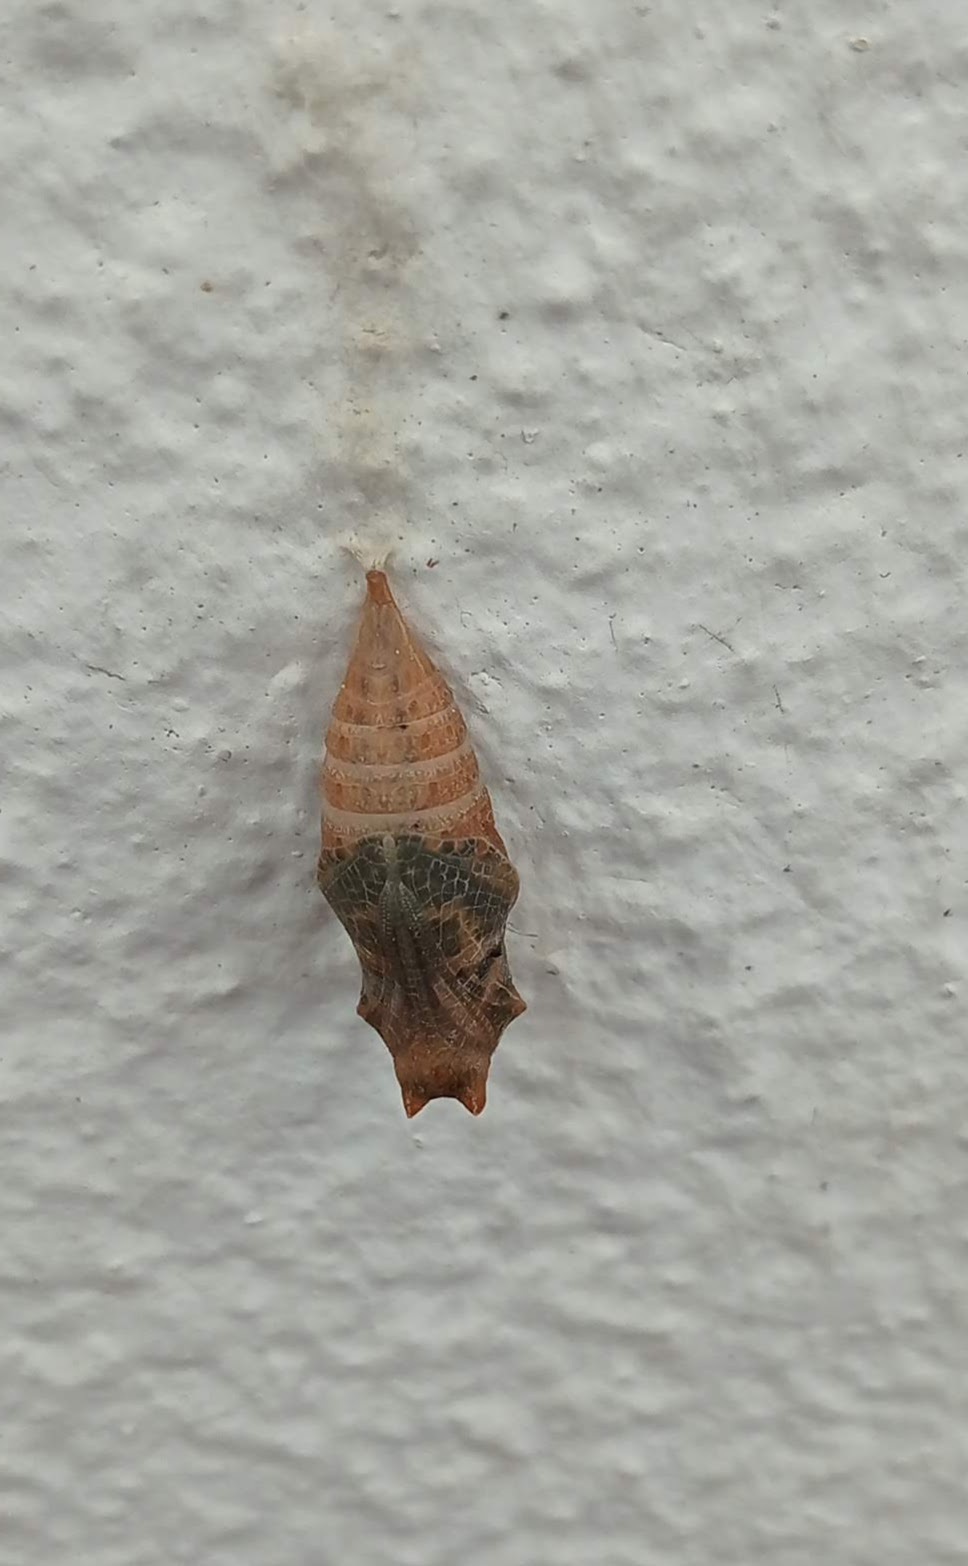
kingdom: Animalia
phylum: Arthropoda
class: Insecta
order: Lepidoptera
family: Papilionidae
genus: Iphiclides
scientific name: Iphiclides feisthamelii
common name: Iberian scarce swallowtail
